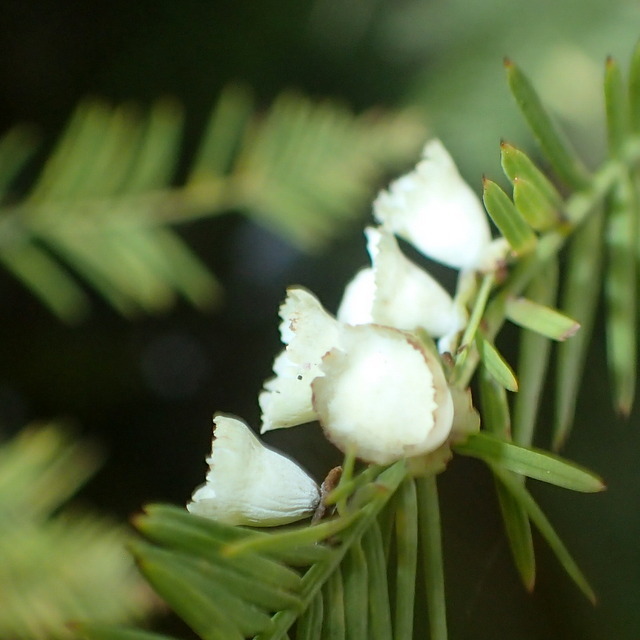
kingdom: Animalia
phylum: Arthropoda
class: Insecta
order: Diptera
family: Cecidomyiidae
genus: Taxodiomyia
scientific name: Taxodiomyia cupressi
